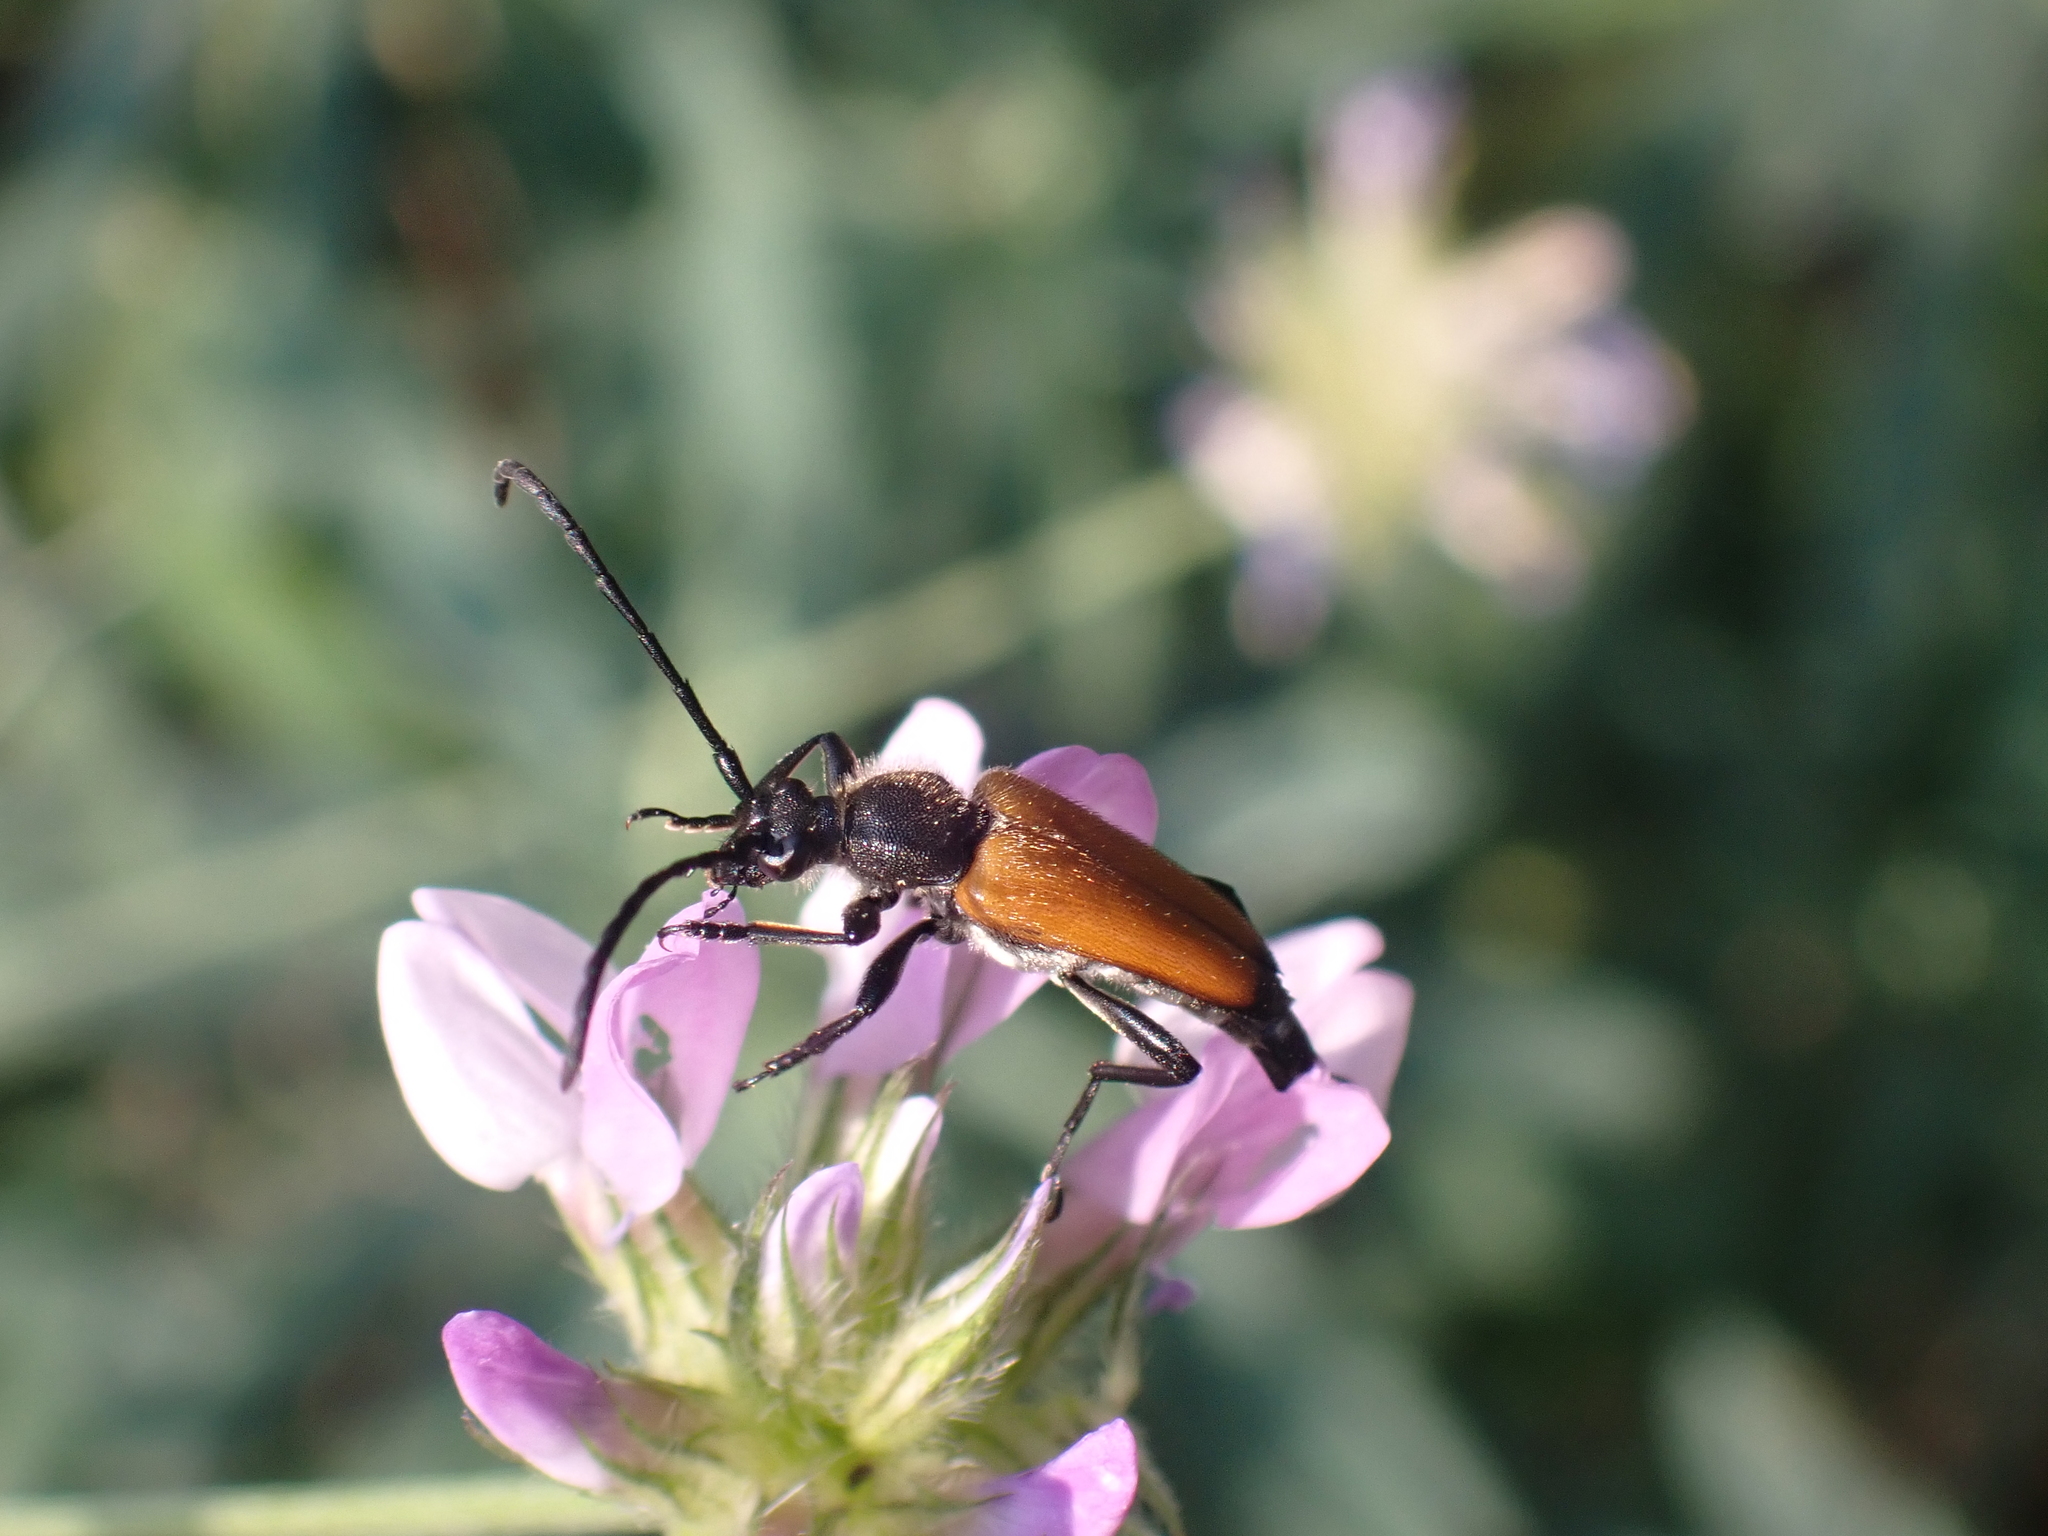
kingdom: Animalia
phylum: Arthropoda
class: Insecta
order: Coleoptera
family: Cerambycidae
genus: Paracorymbia
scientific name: Paracorymbia fulva
